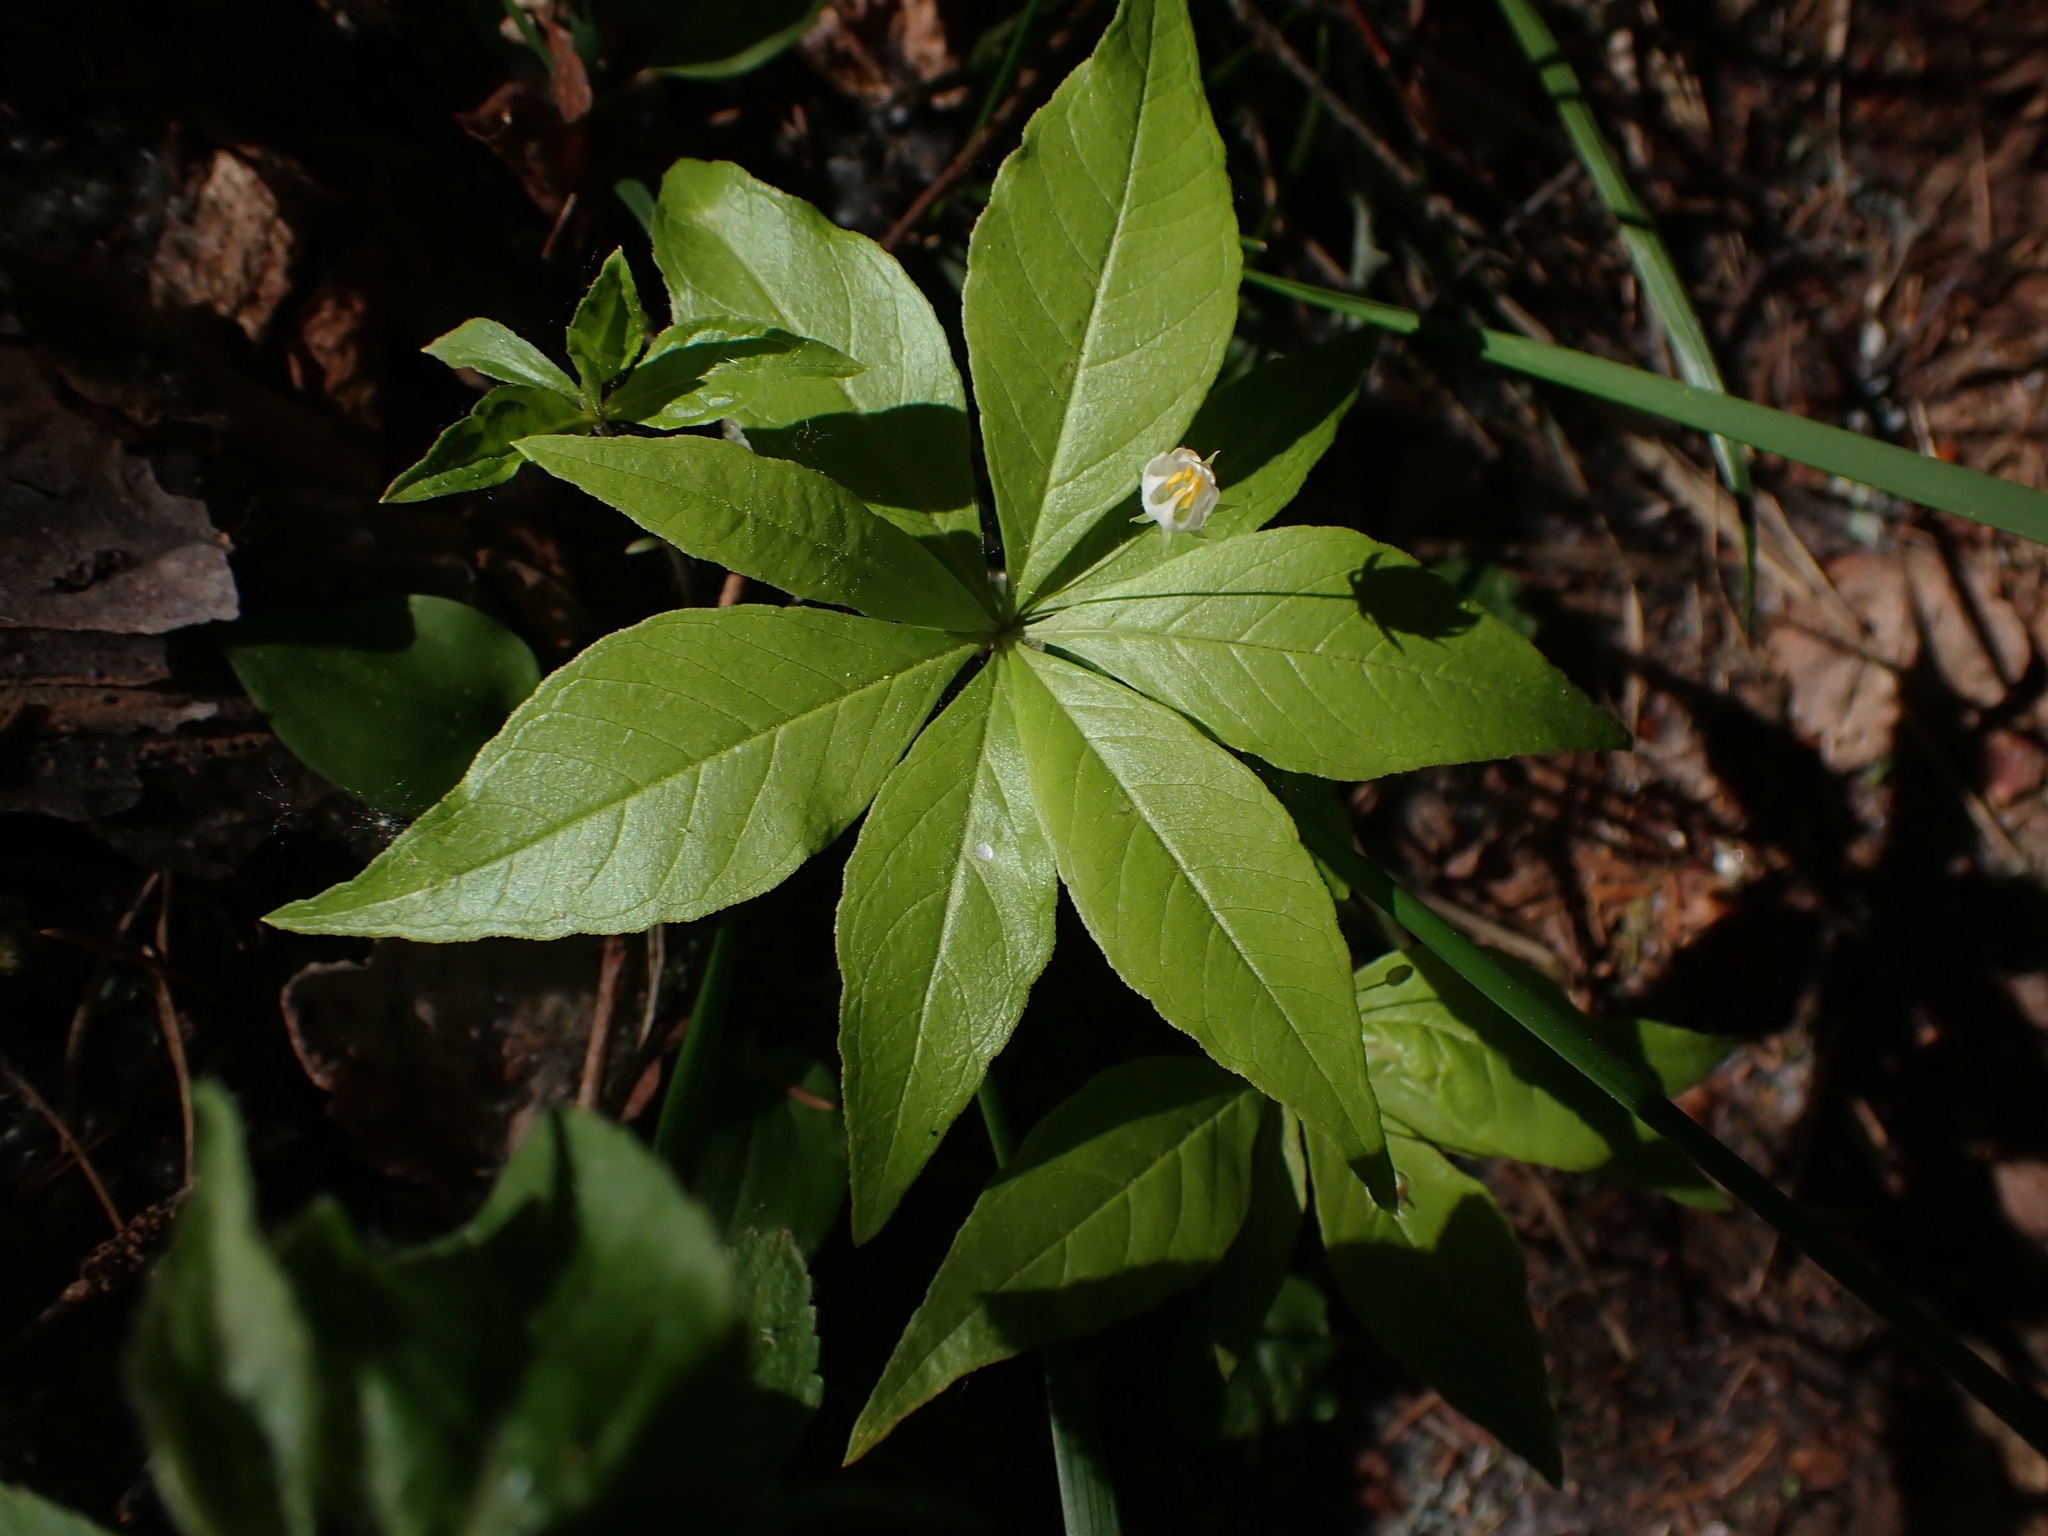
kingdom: Plantae
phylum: Tracheophyta
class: Magnoliopsida
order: Ericales
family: Primulaceae
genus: Lysimachia
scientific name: Lysimachia borealis
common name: American starflower
